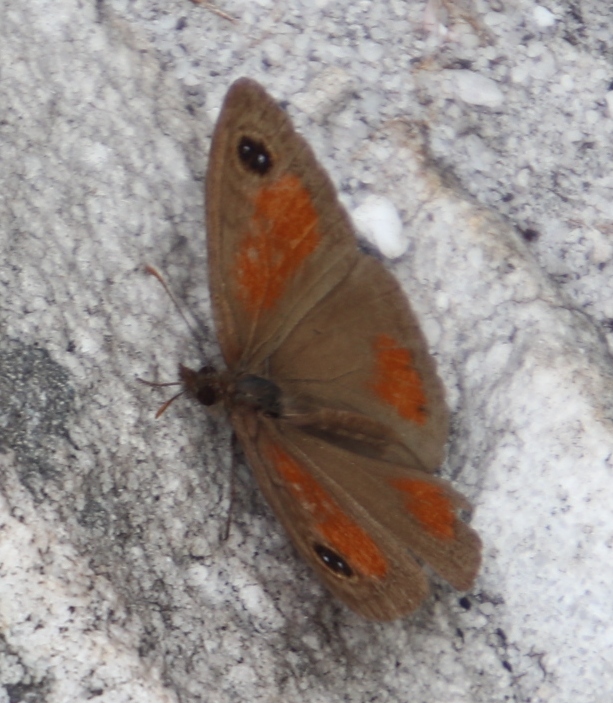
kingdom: Animalia
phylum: Arthropoda
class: Insecta
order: Lepidoptera
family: Nymphalidae
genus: Pseudonympha
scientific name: Pseudonympha detecta
